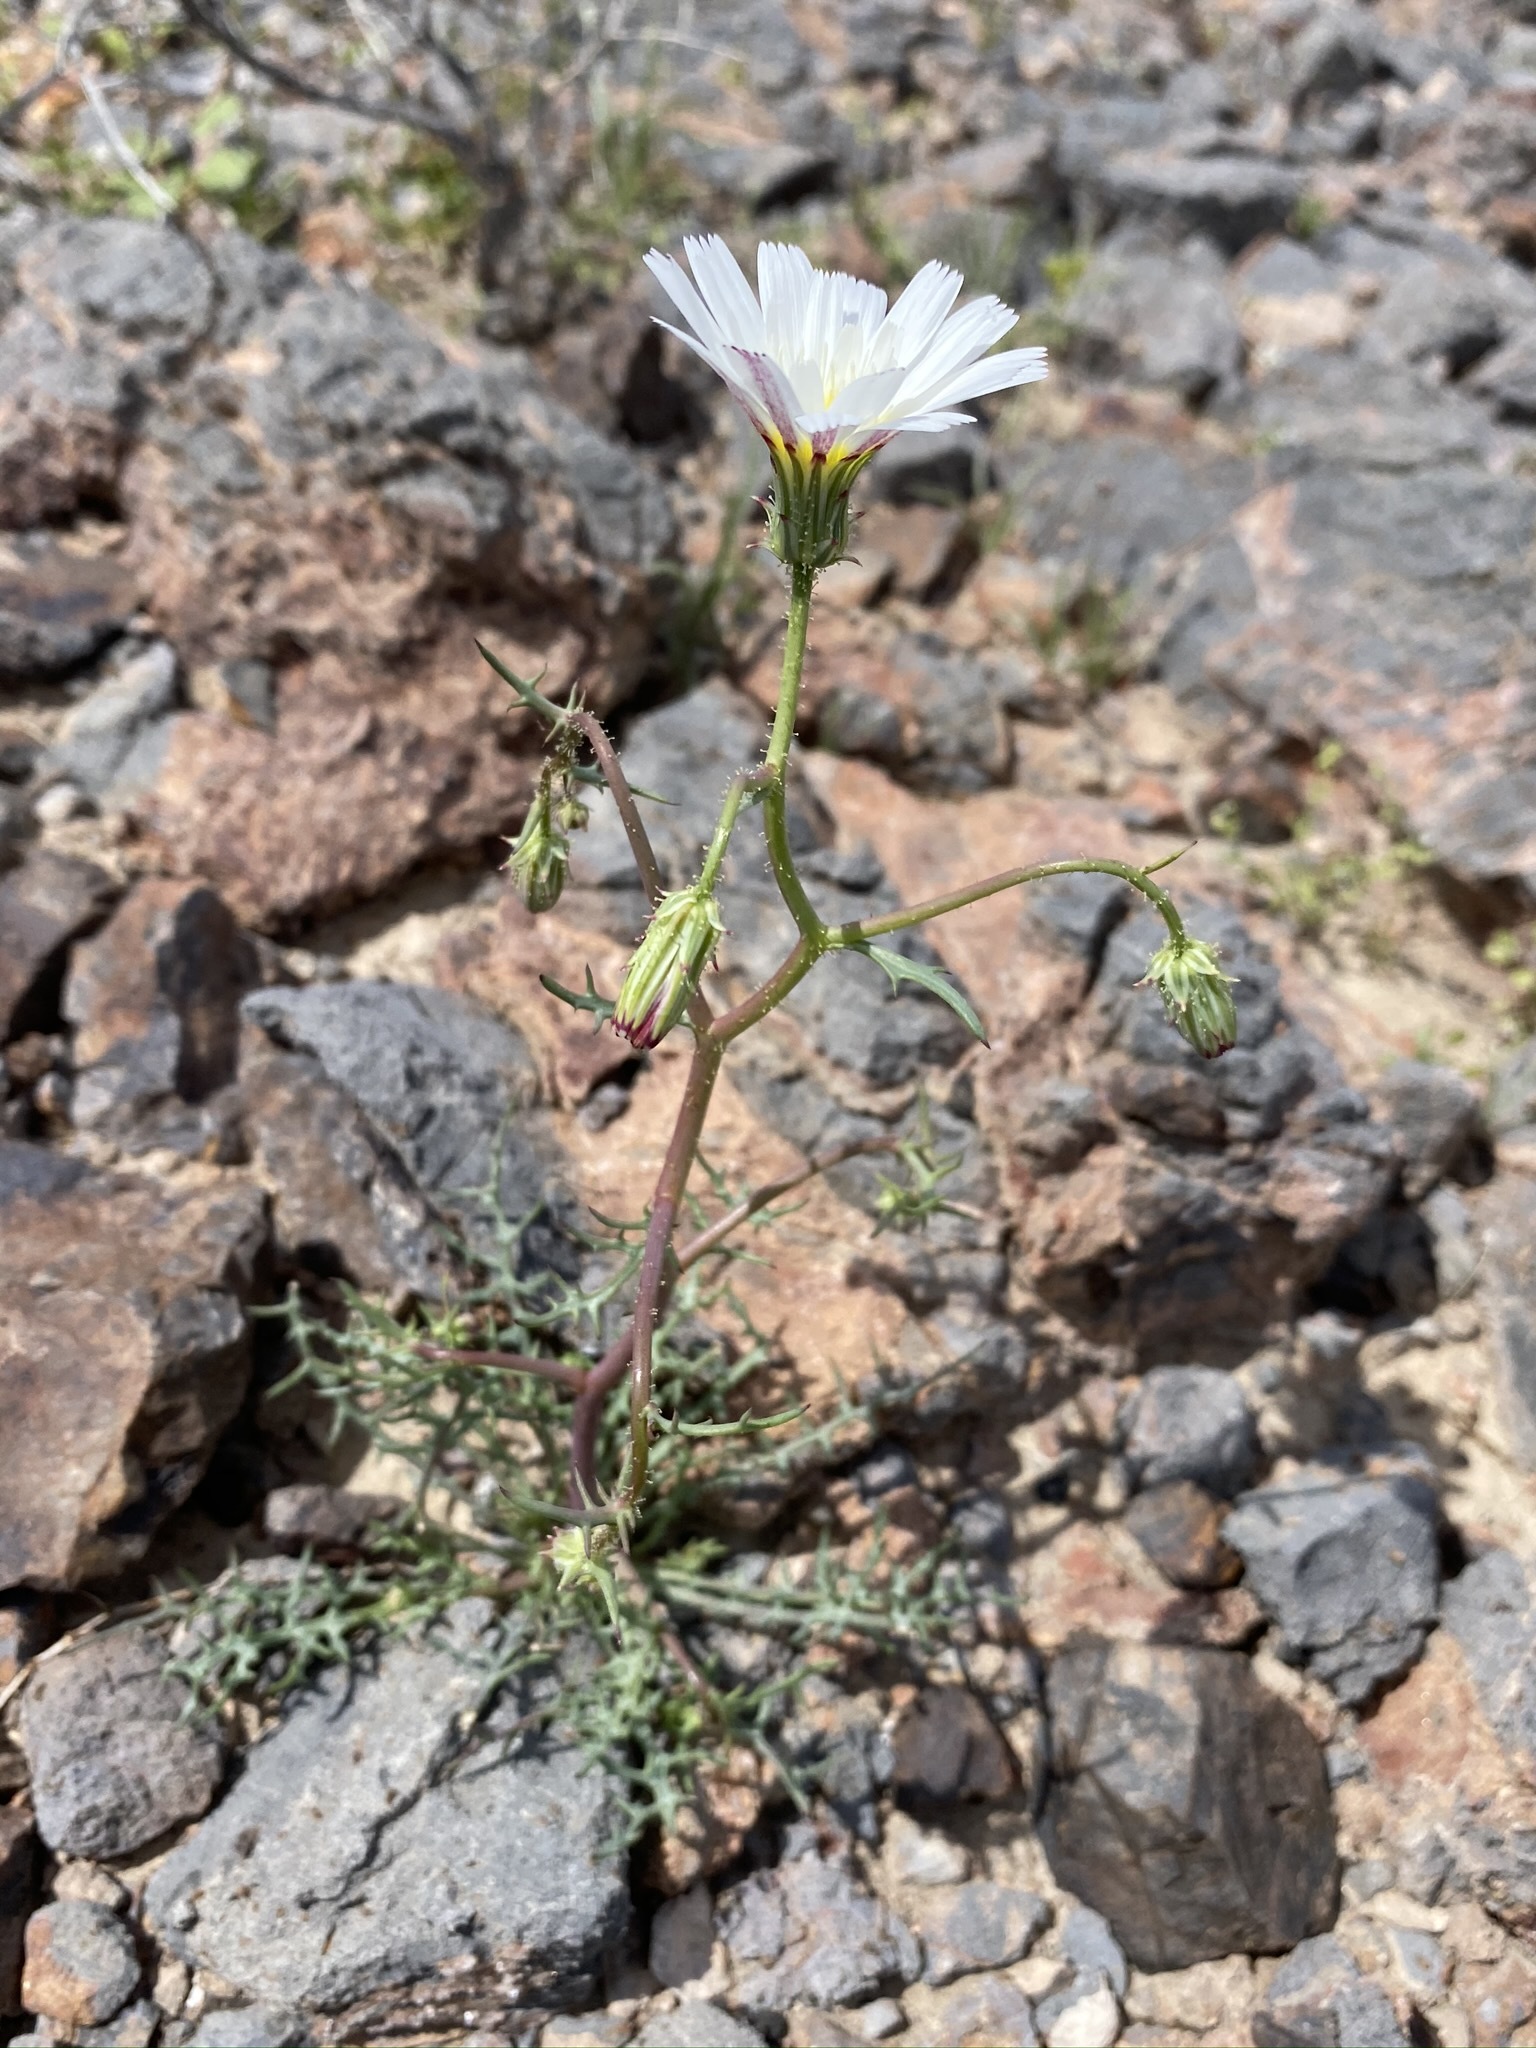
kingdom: Plantae
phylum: Tracheophyta
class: Magnoliopsida
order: Asterales
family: Asteraceae
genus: Calycoseris
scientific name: Calycoseris wrightii
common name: White tackstem
